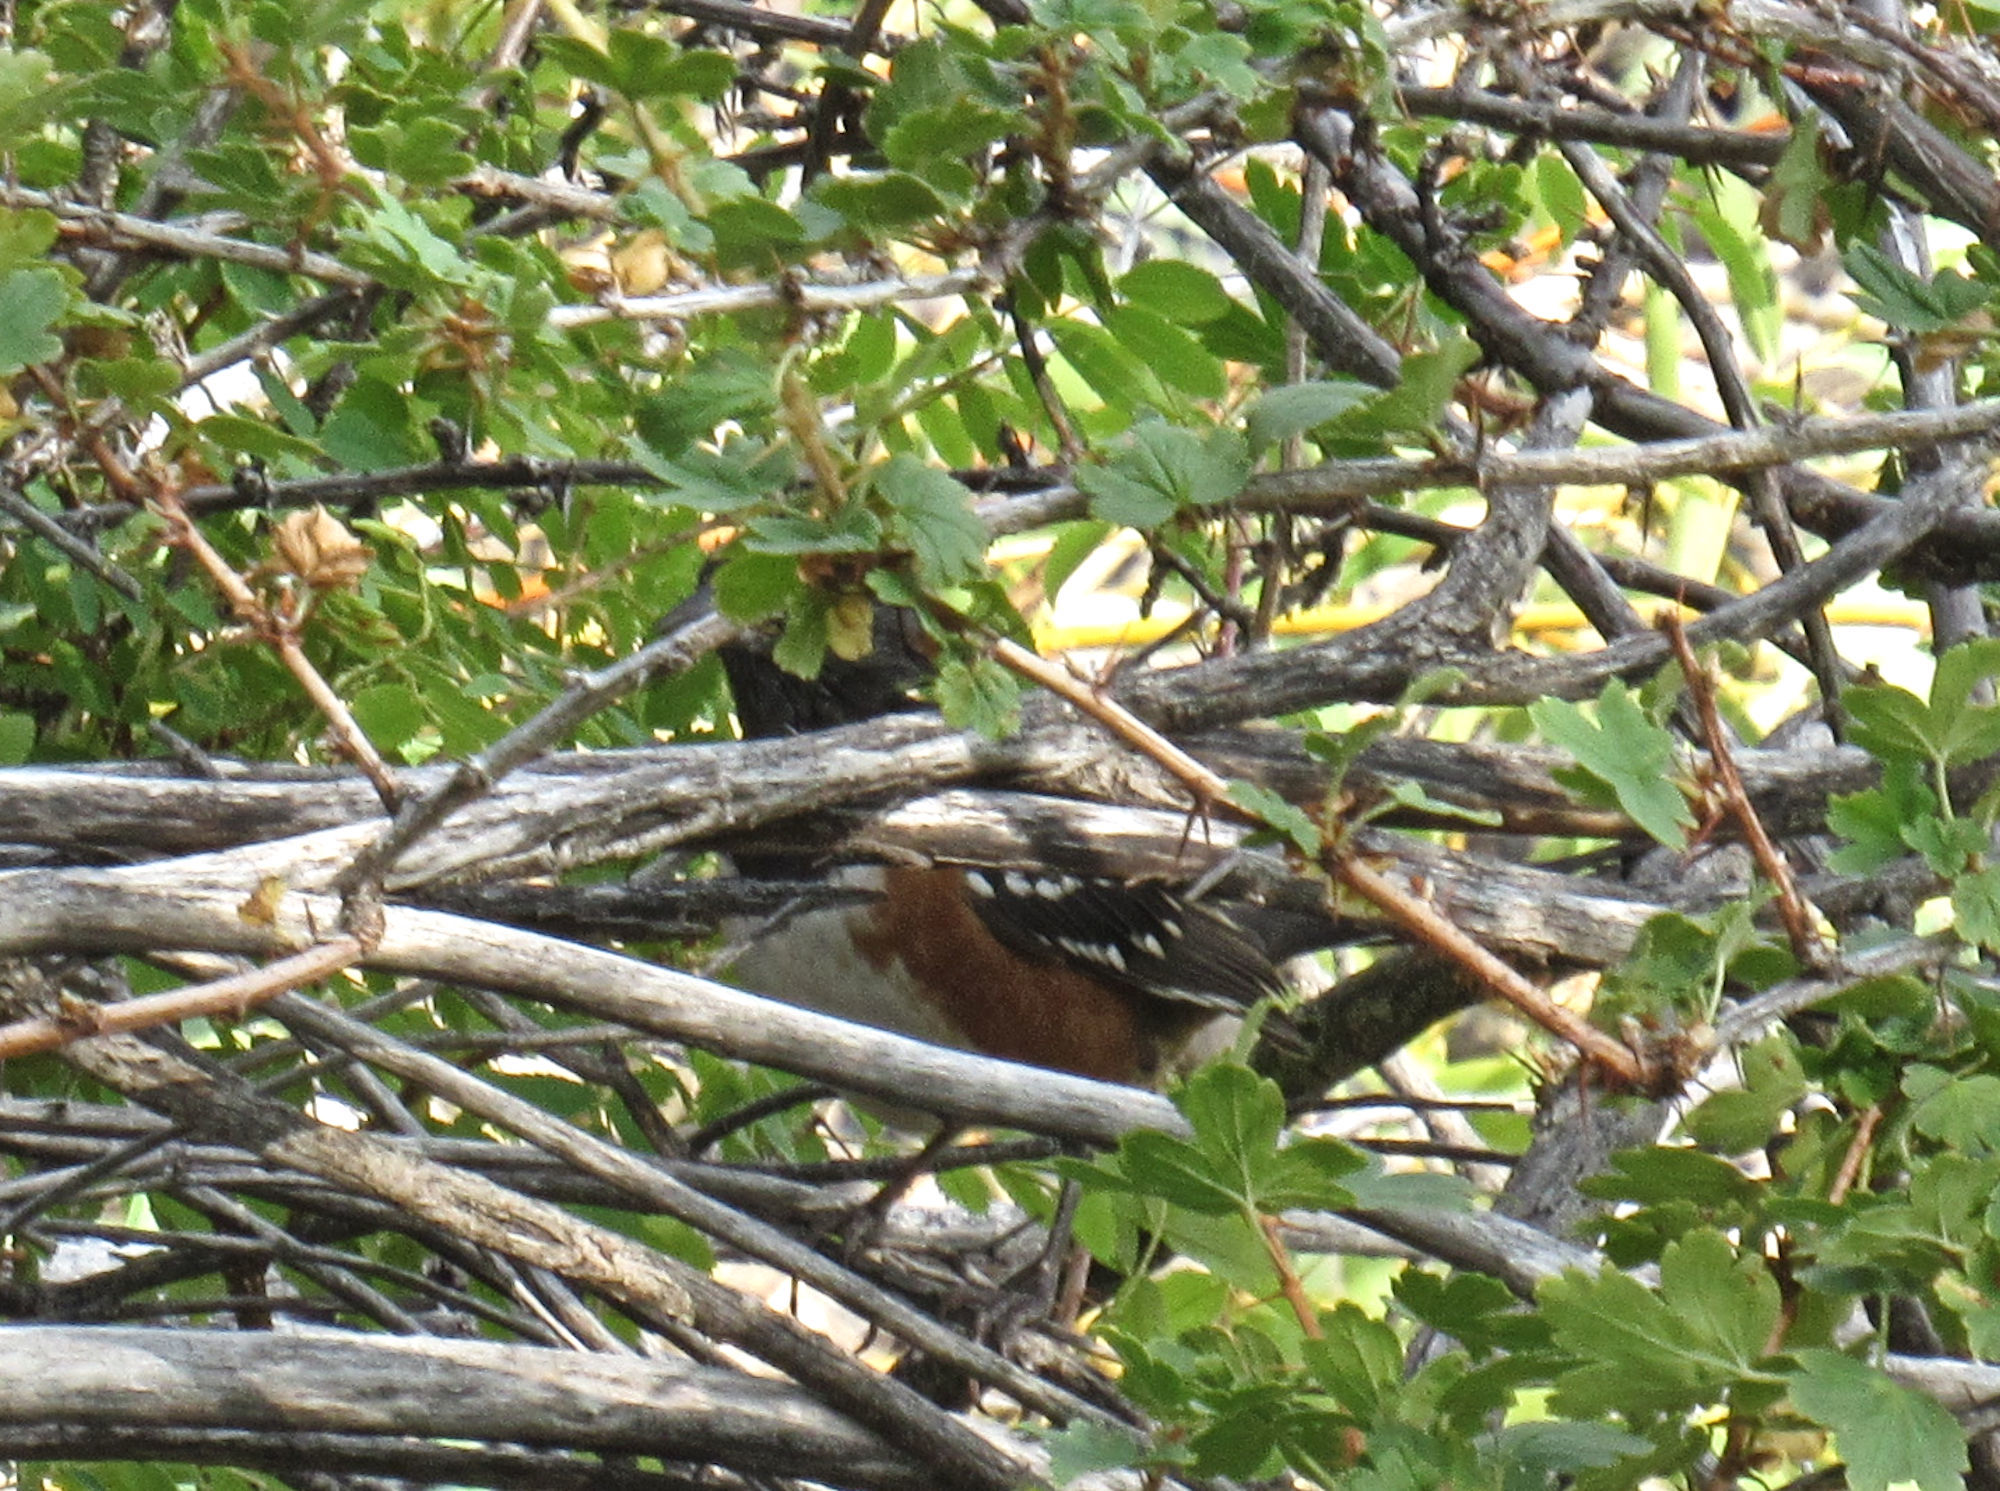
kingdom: Animalia
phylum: Chordata
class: Aves
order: Passeriformes
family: Passerellidae
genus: Pipilo
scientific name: Pipilo maculatus
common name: Spotted towhee
